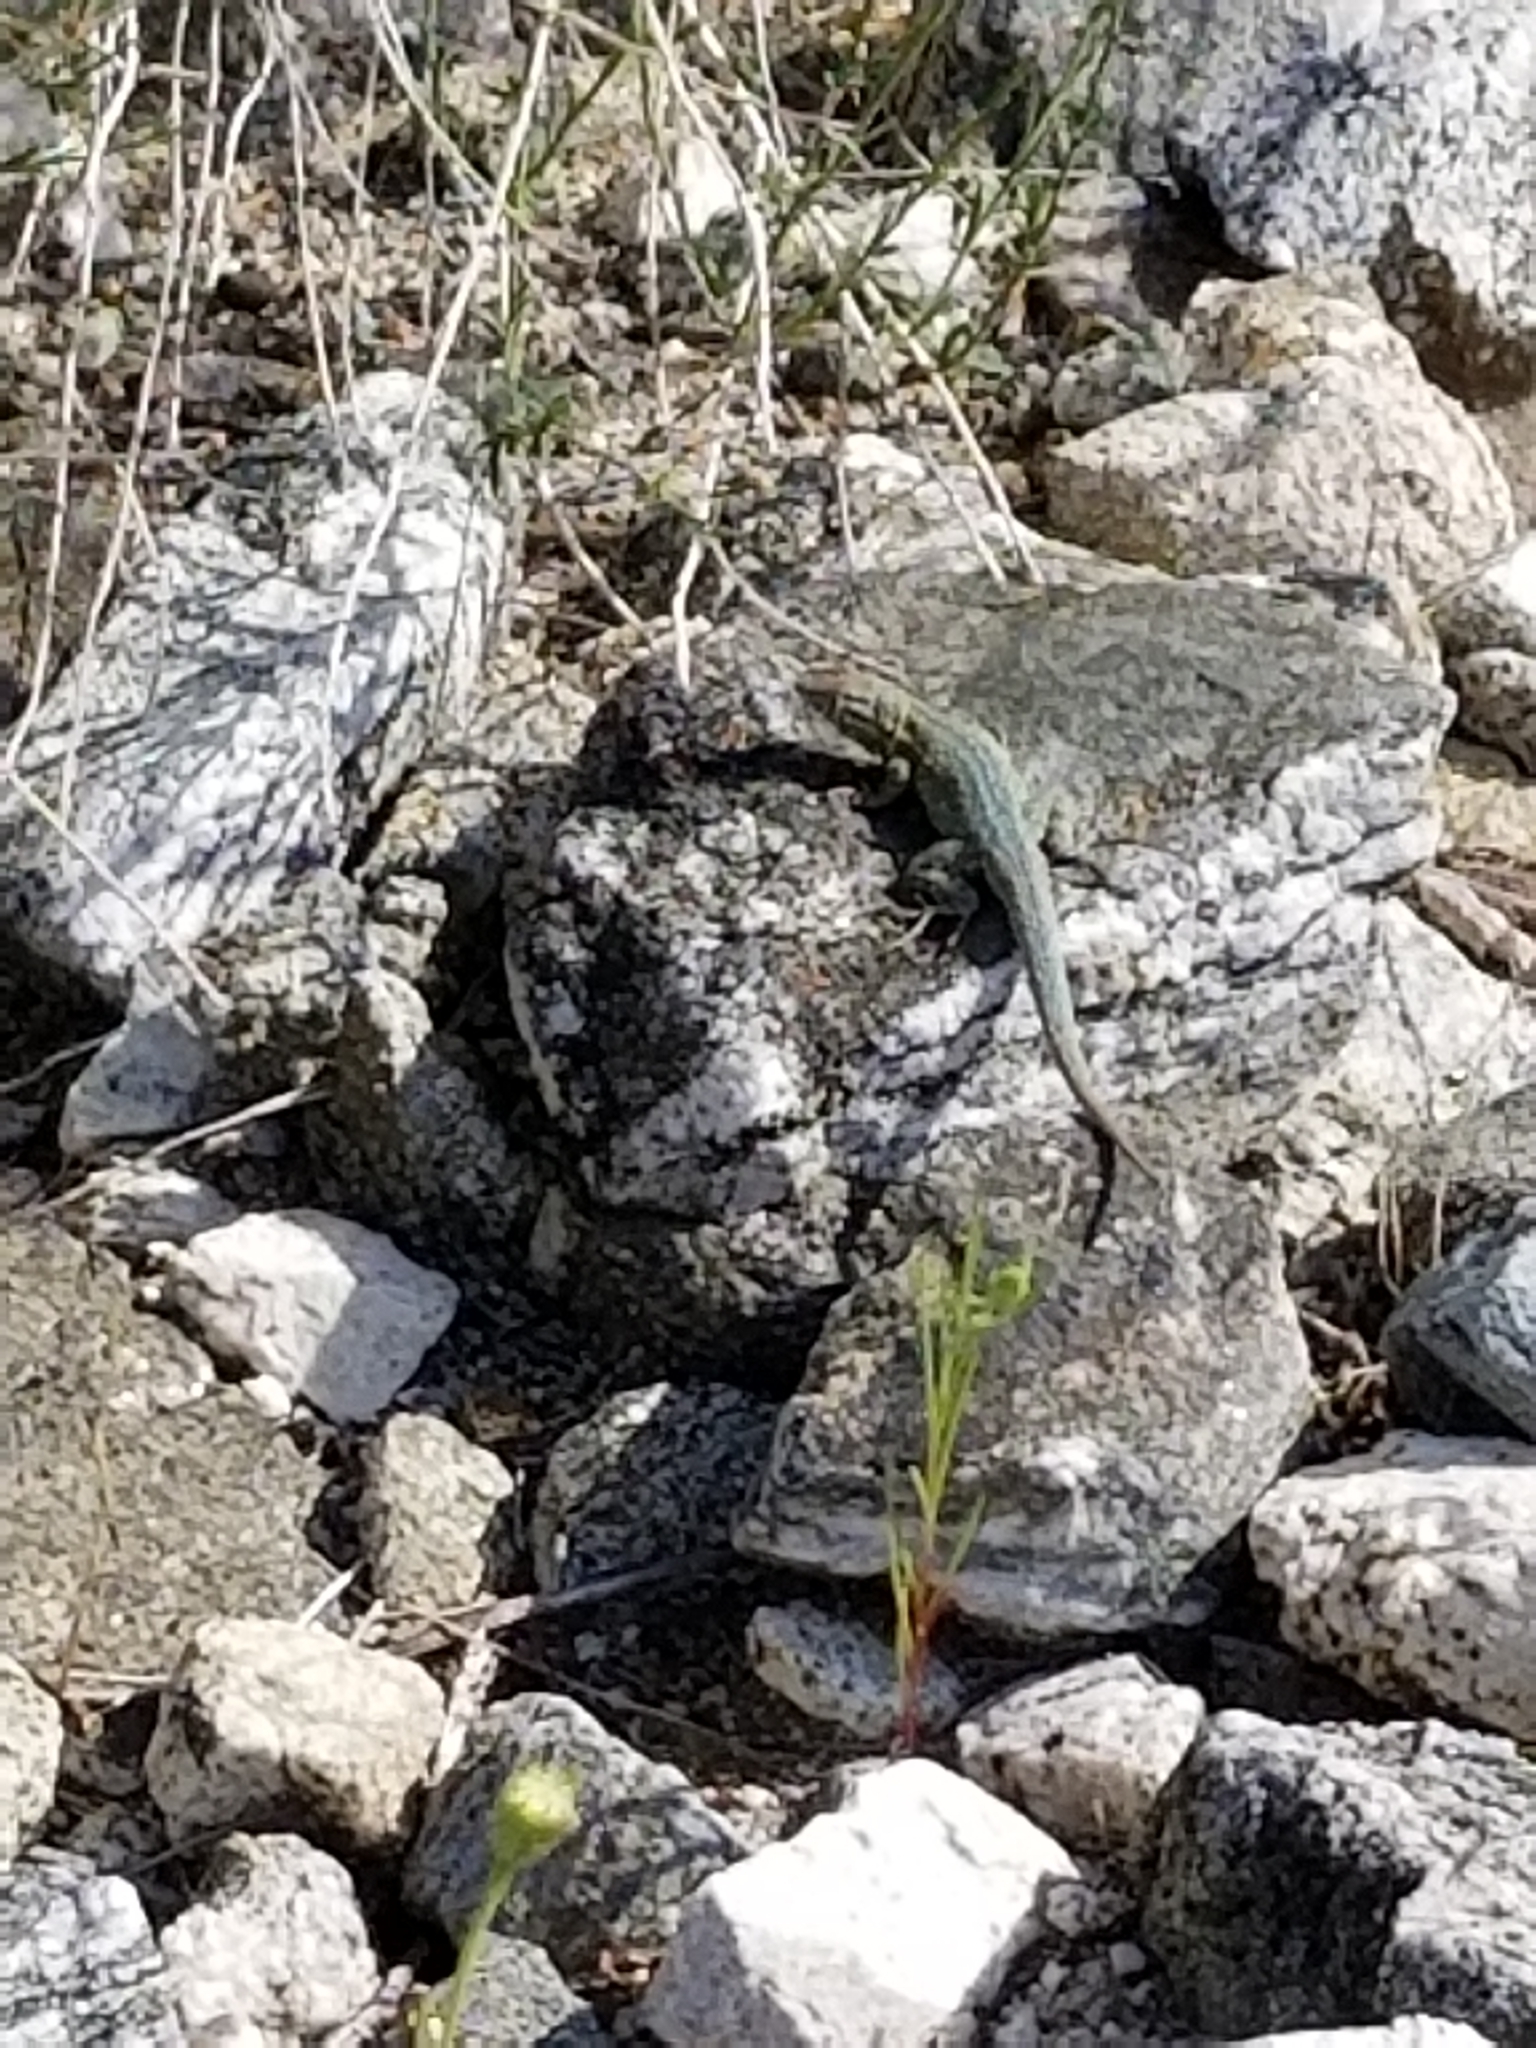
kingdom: Animalia
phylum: Chordata
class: Squamata
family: Phrynosomatidae
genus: Uta
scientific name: Uta stansburiana
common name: Side-blotched lizard
